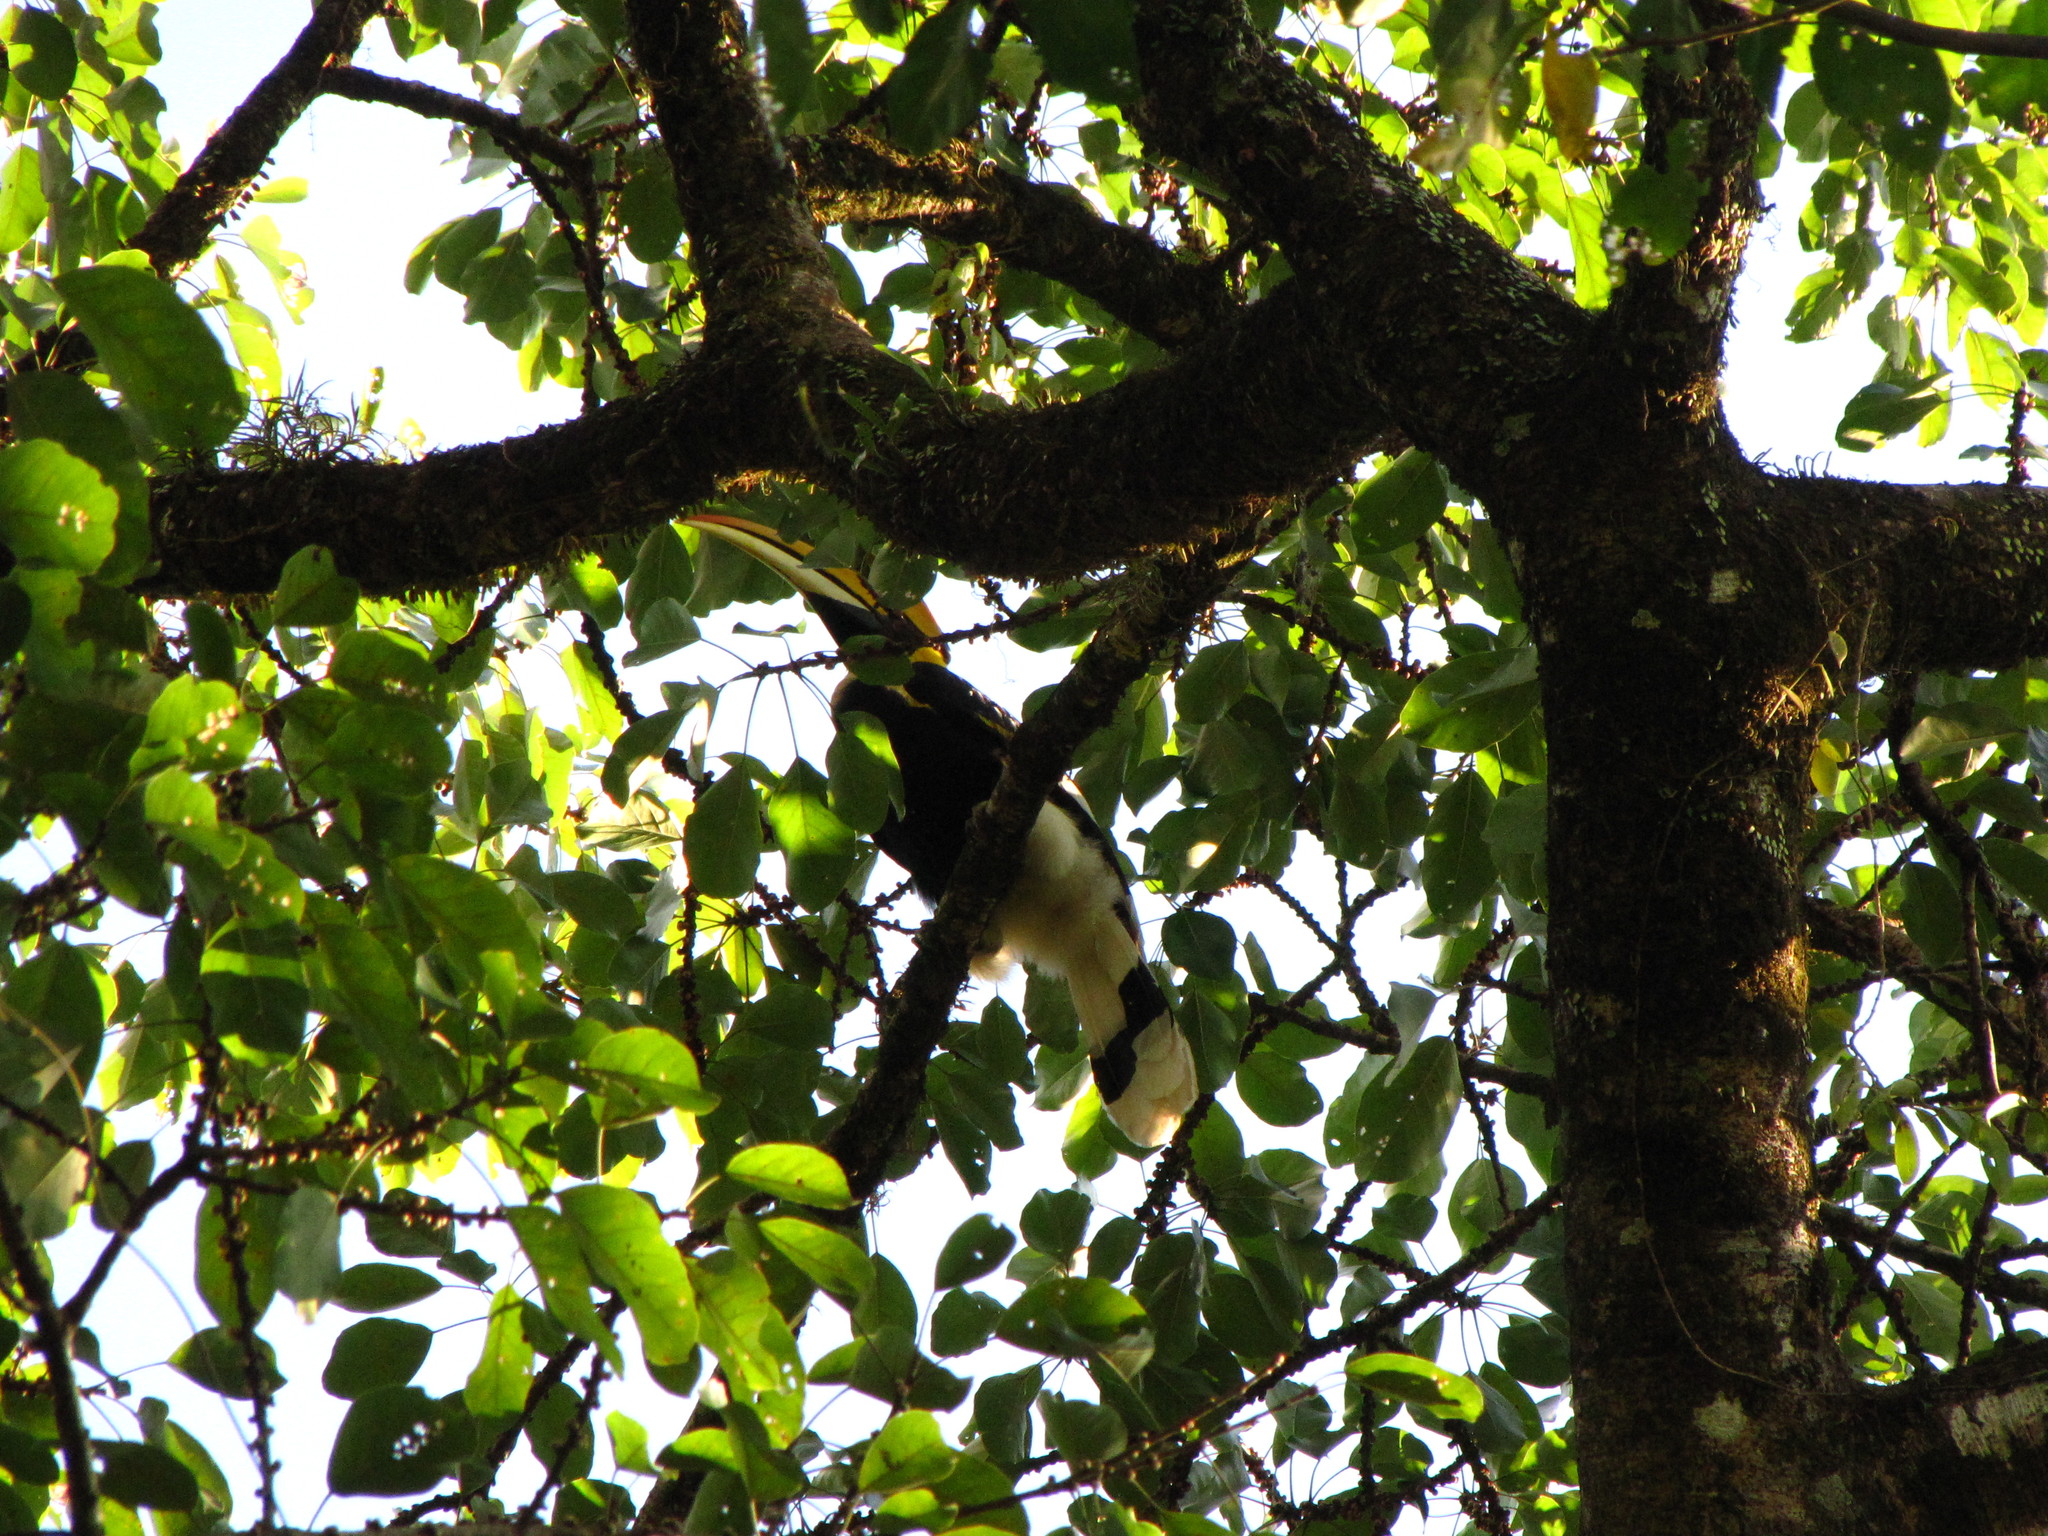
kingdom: Animalia
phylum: Chordata
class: Aves
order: Bucerotiformes
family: Bucerotidae
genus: Buceros
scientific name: Buceros bicornis
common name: Great hornbill
